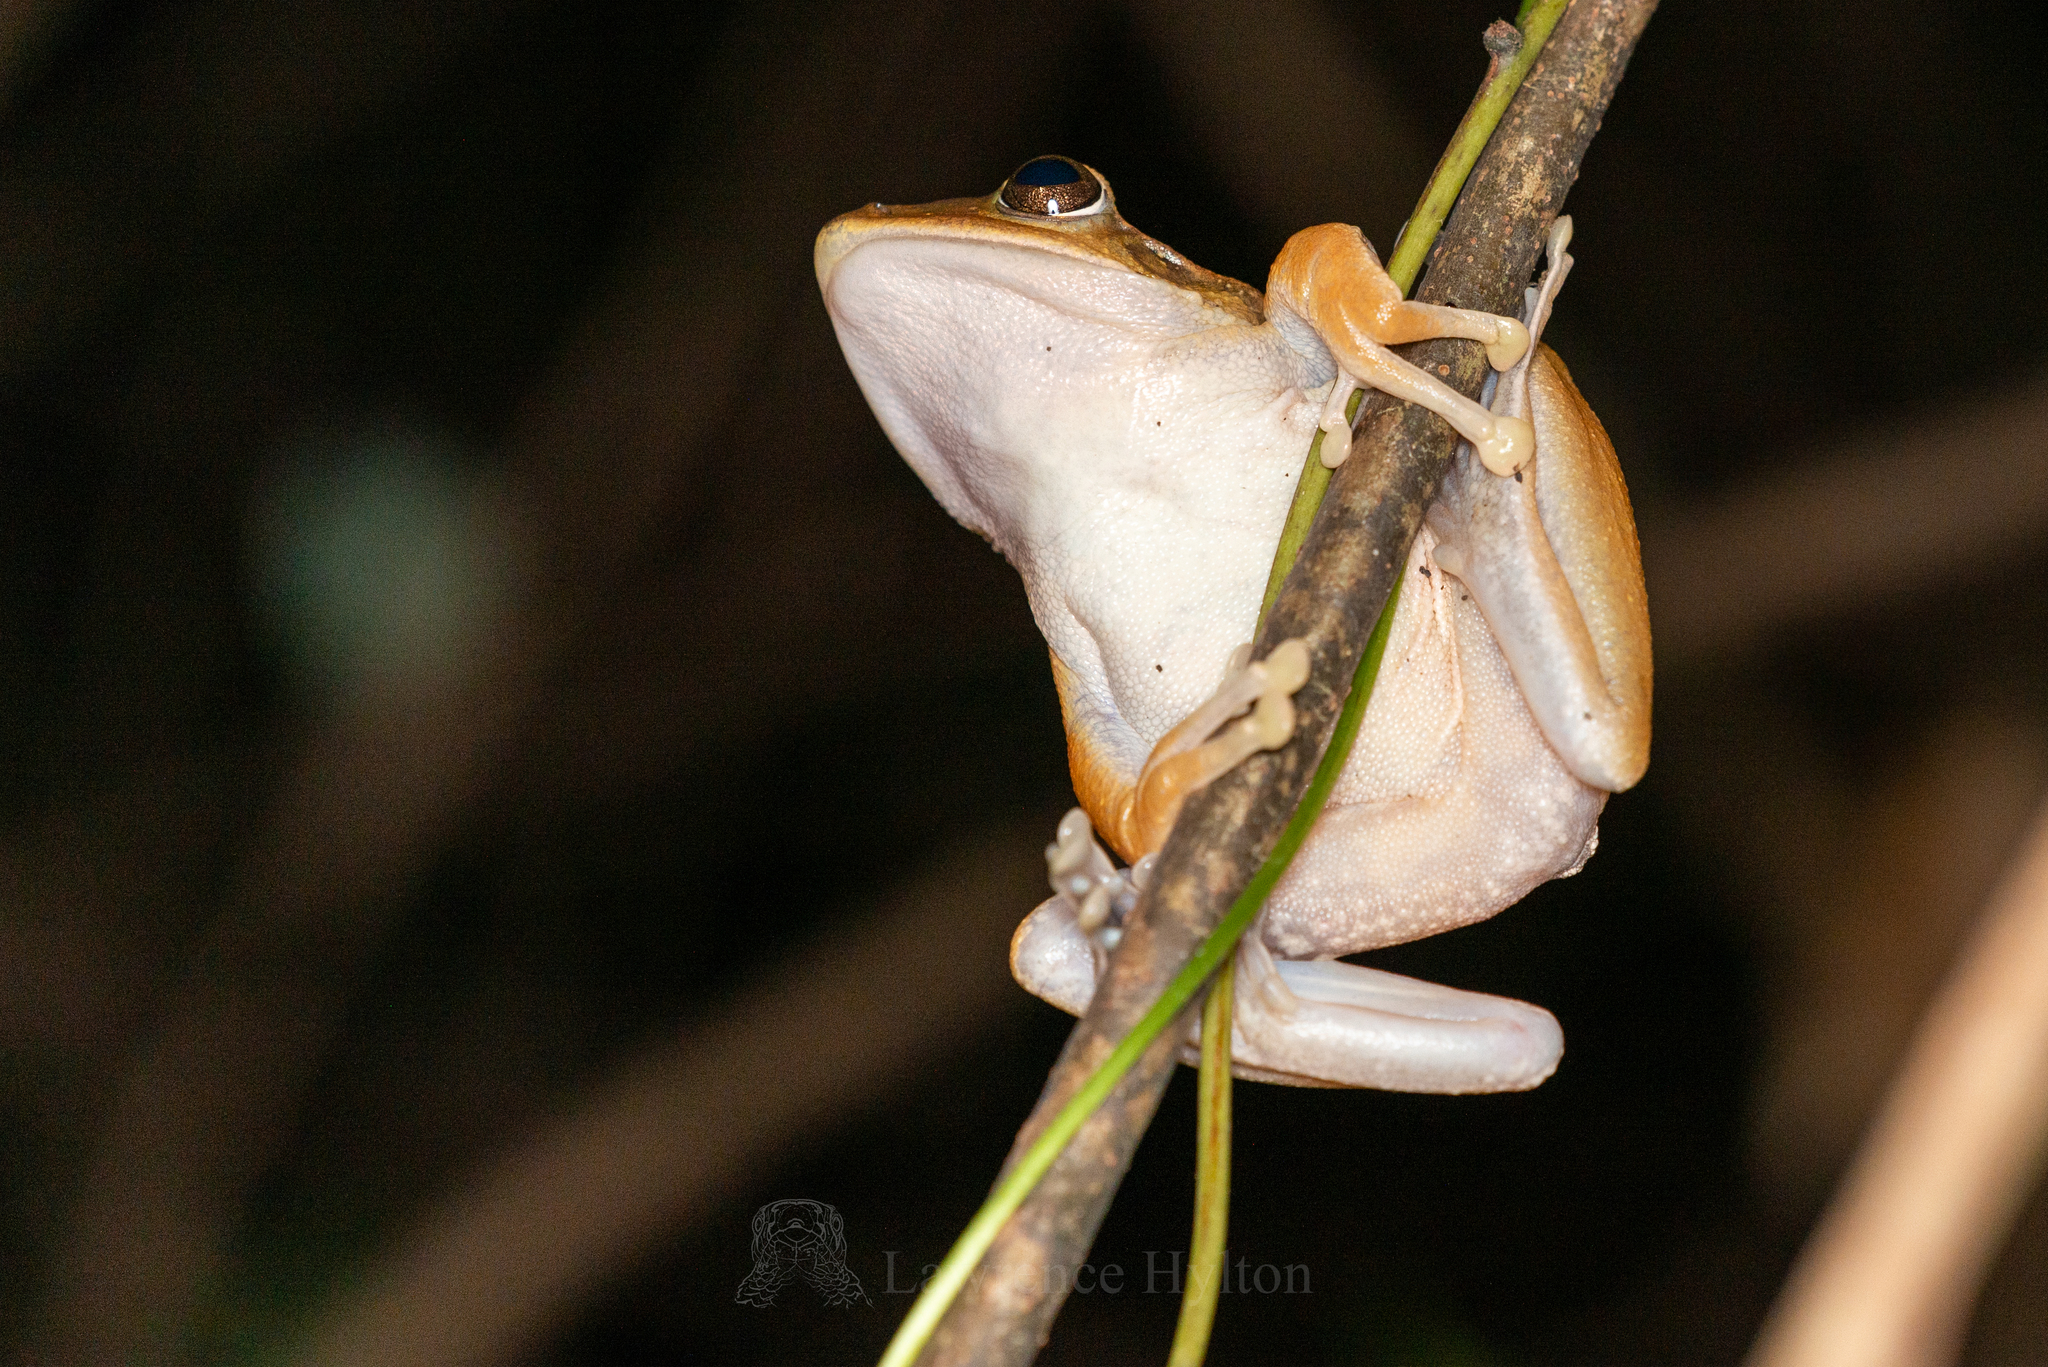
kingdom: Animalia
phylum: Chordata
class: Amphibia
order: Anura
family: Rhacophoridae
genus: Polypedates
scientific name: Polypedates megacephalus
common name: Hong kong whipping frog
